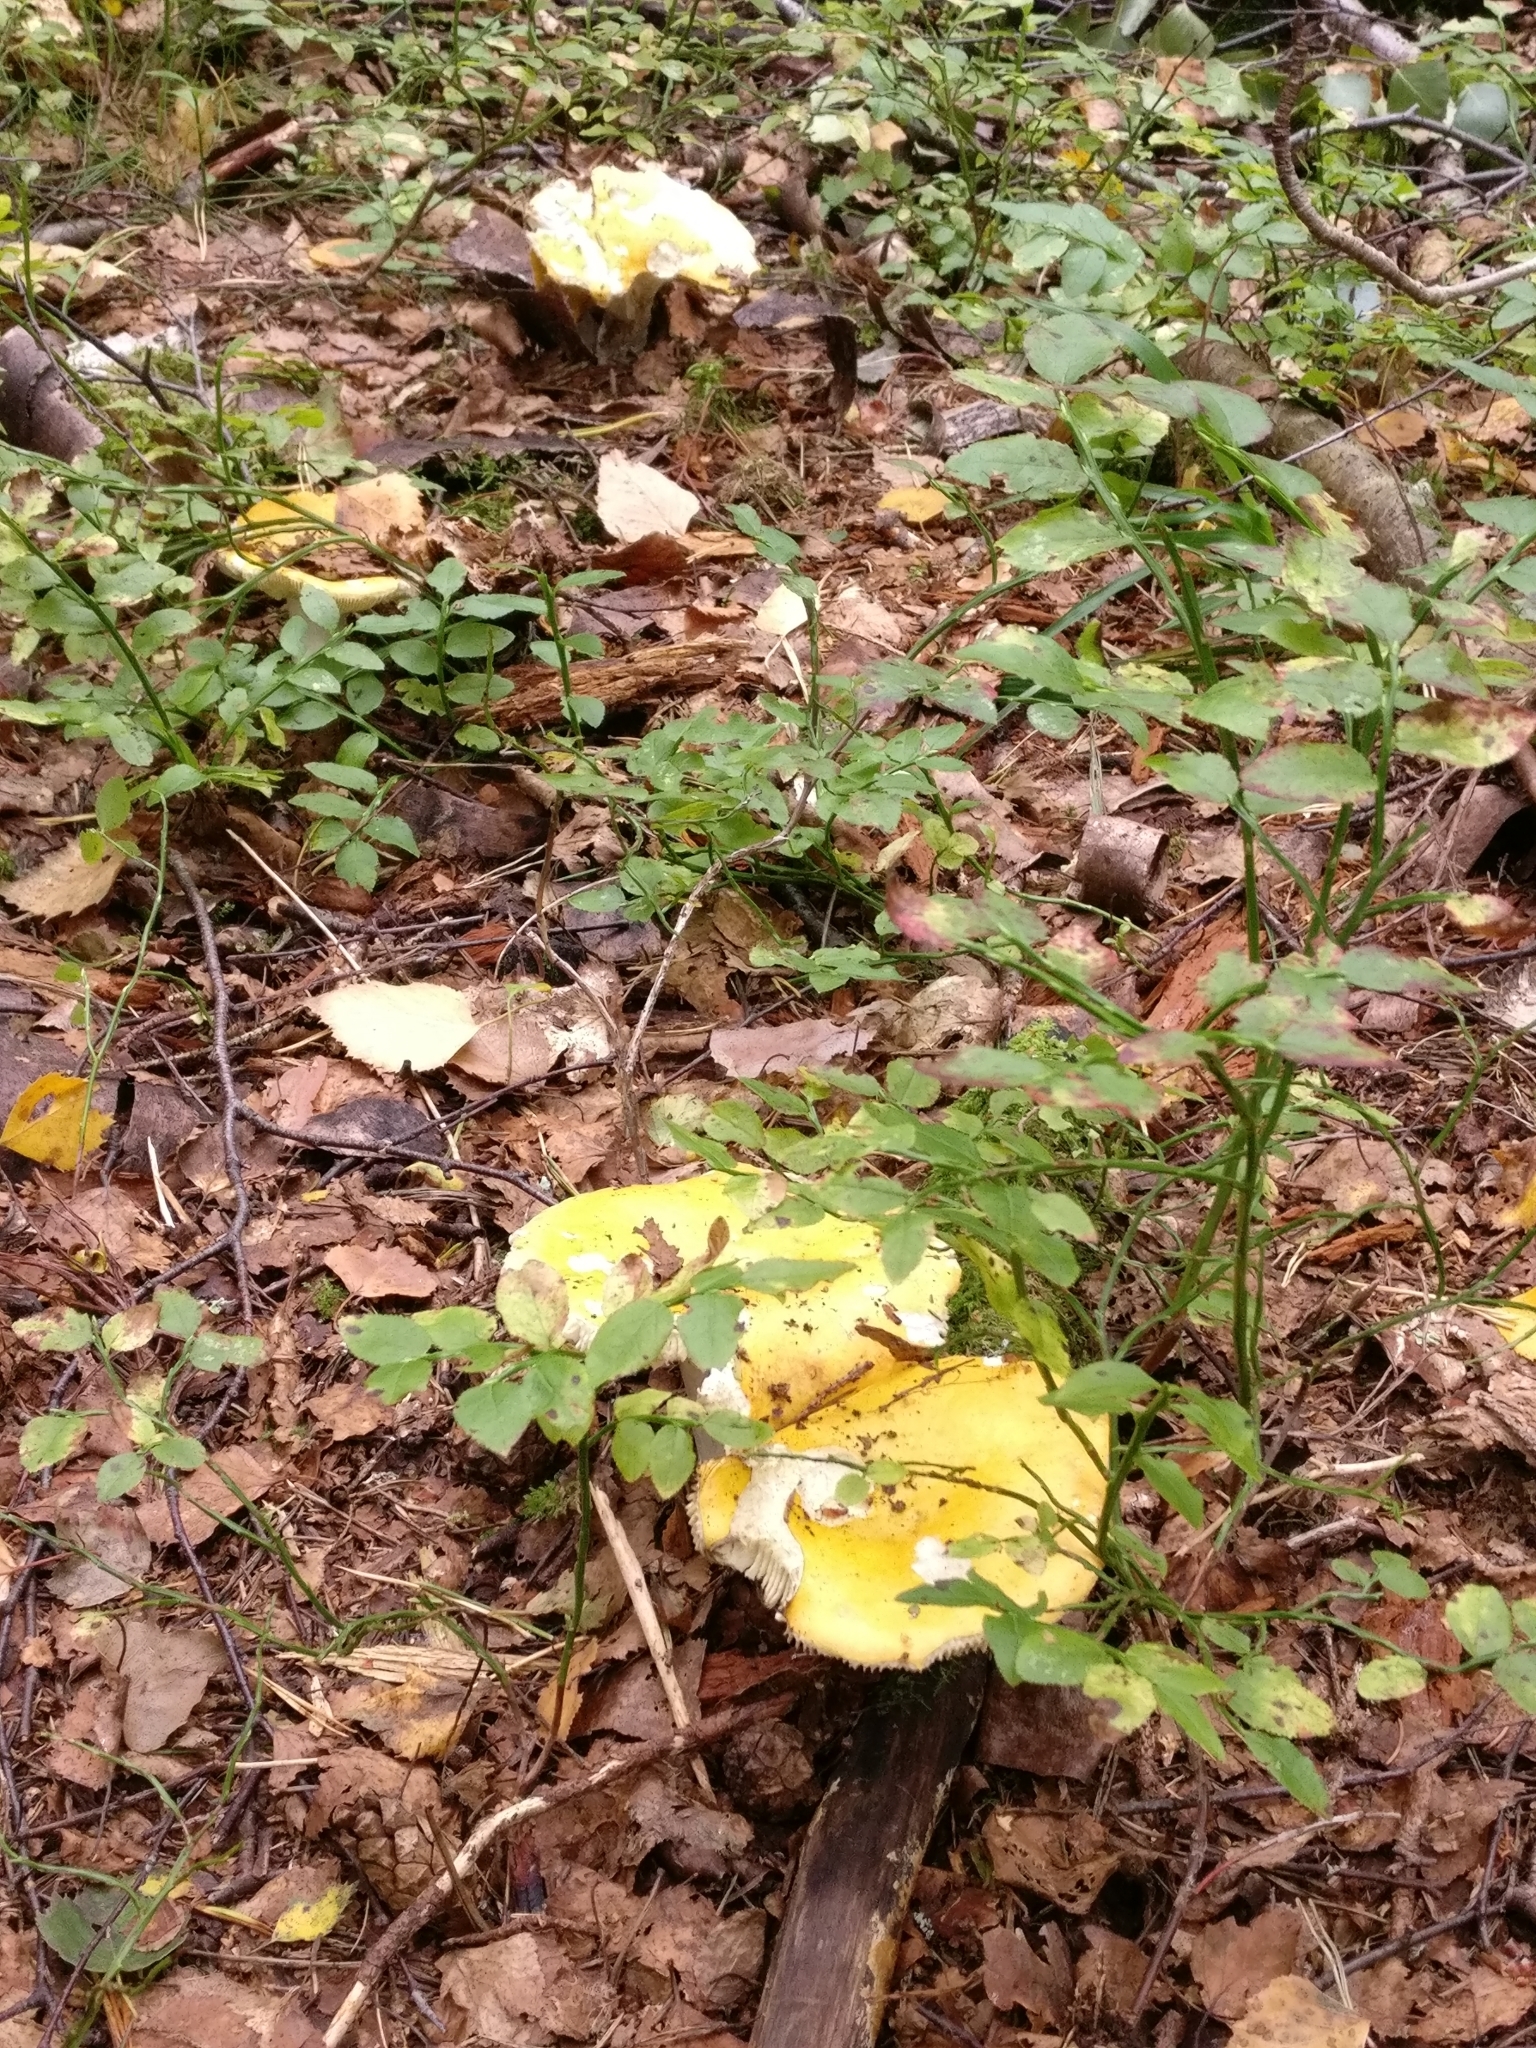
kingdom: Fungi
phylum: Basidiomycota
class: Agaricomycetes
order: Russulales
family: Russulaceae
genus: Russula
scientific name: Russula claroflava
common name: The yellow swamp brittlegill
